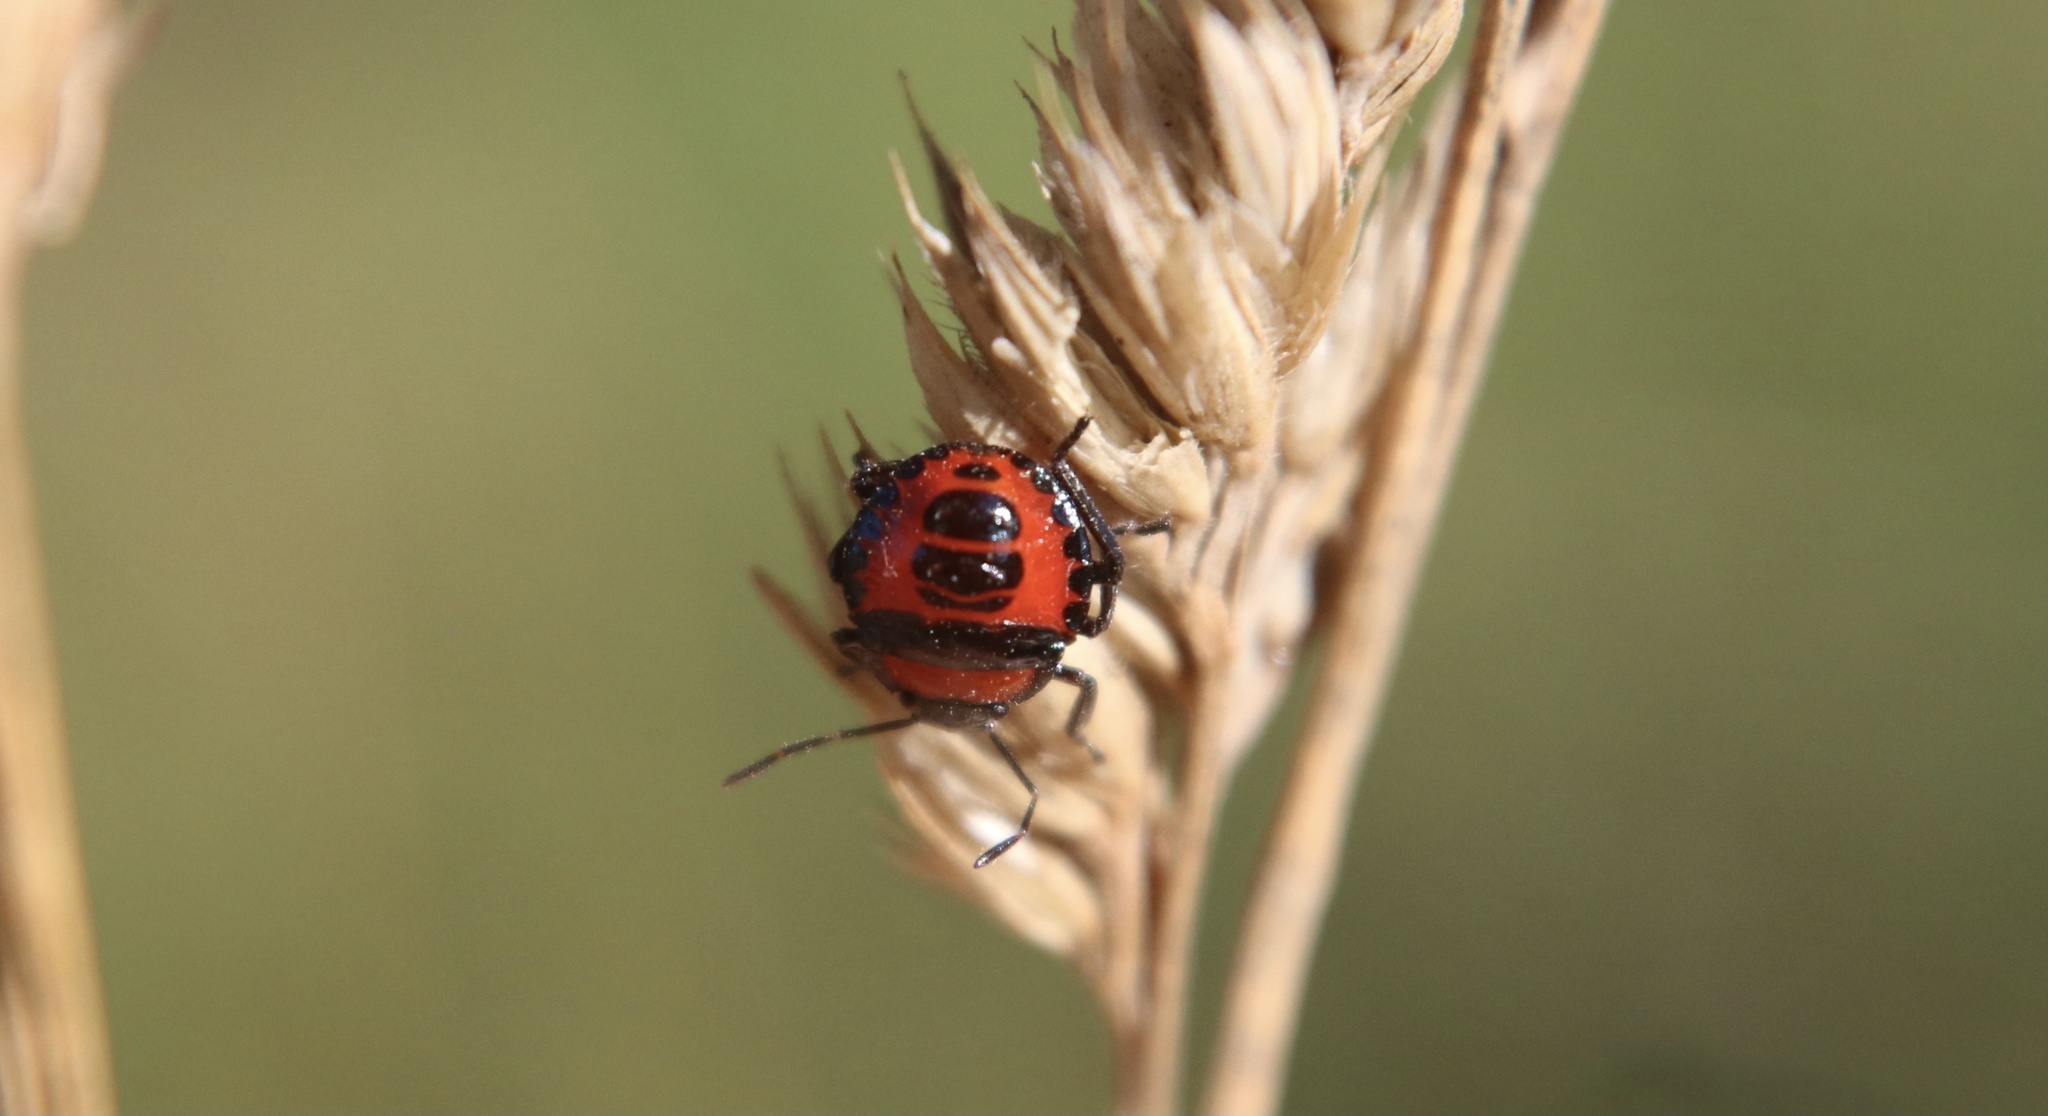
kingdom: Animalia
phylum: Arthropoda
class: Insecta
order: Hemiptera
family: Pentatomidae
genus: Brontocoris
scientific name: Brontocoris
